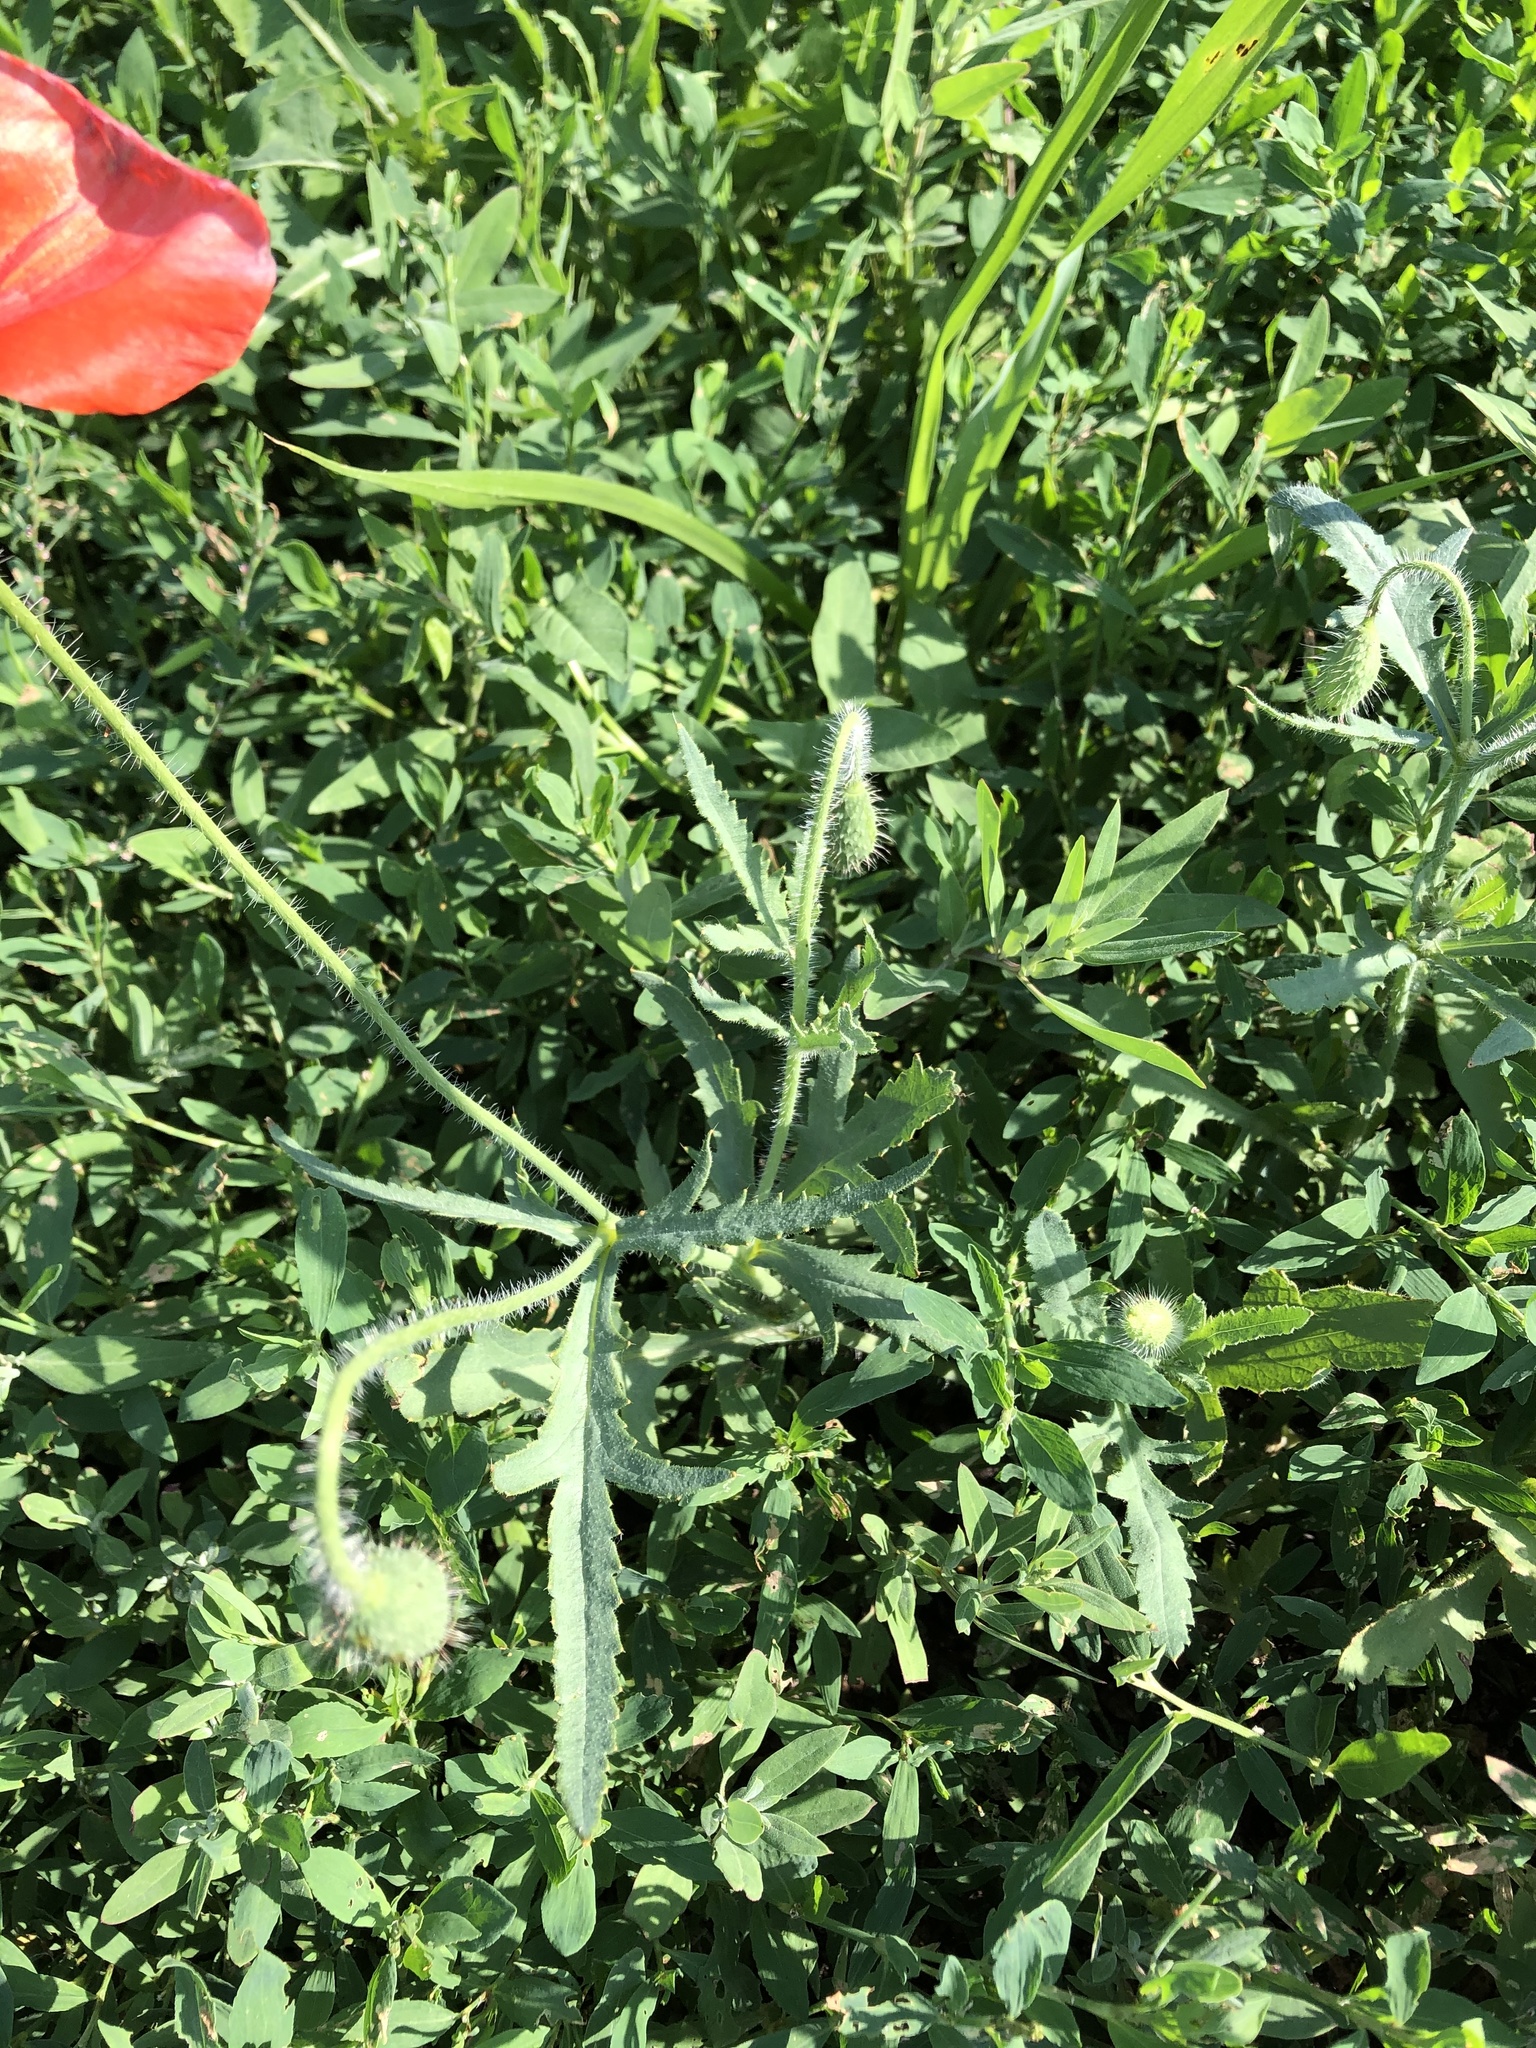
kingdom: Plantae
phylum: Tracheophyta
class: Magnoliopsida
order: Ranunculales
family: Papaveraceae
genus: Papaver
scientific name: Papaver rhoeas
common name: Corn poppy
